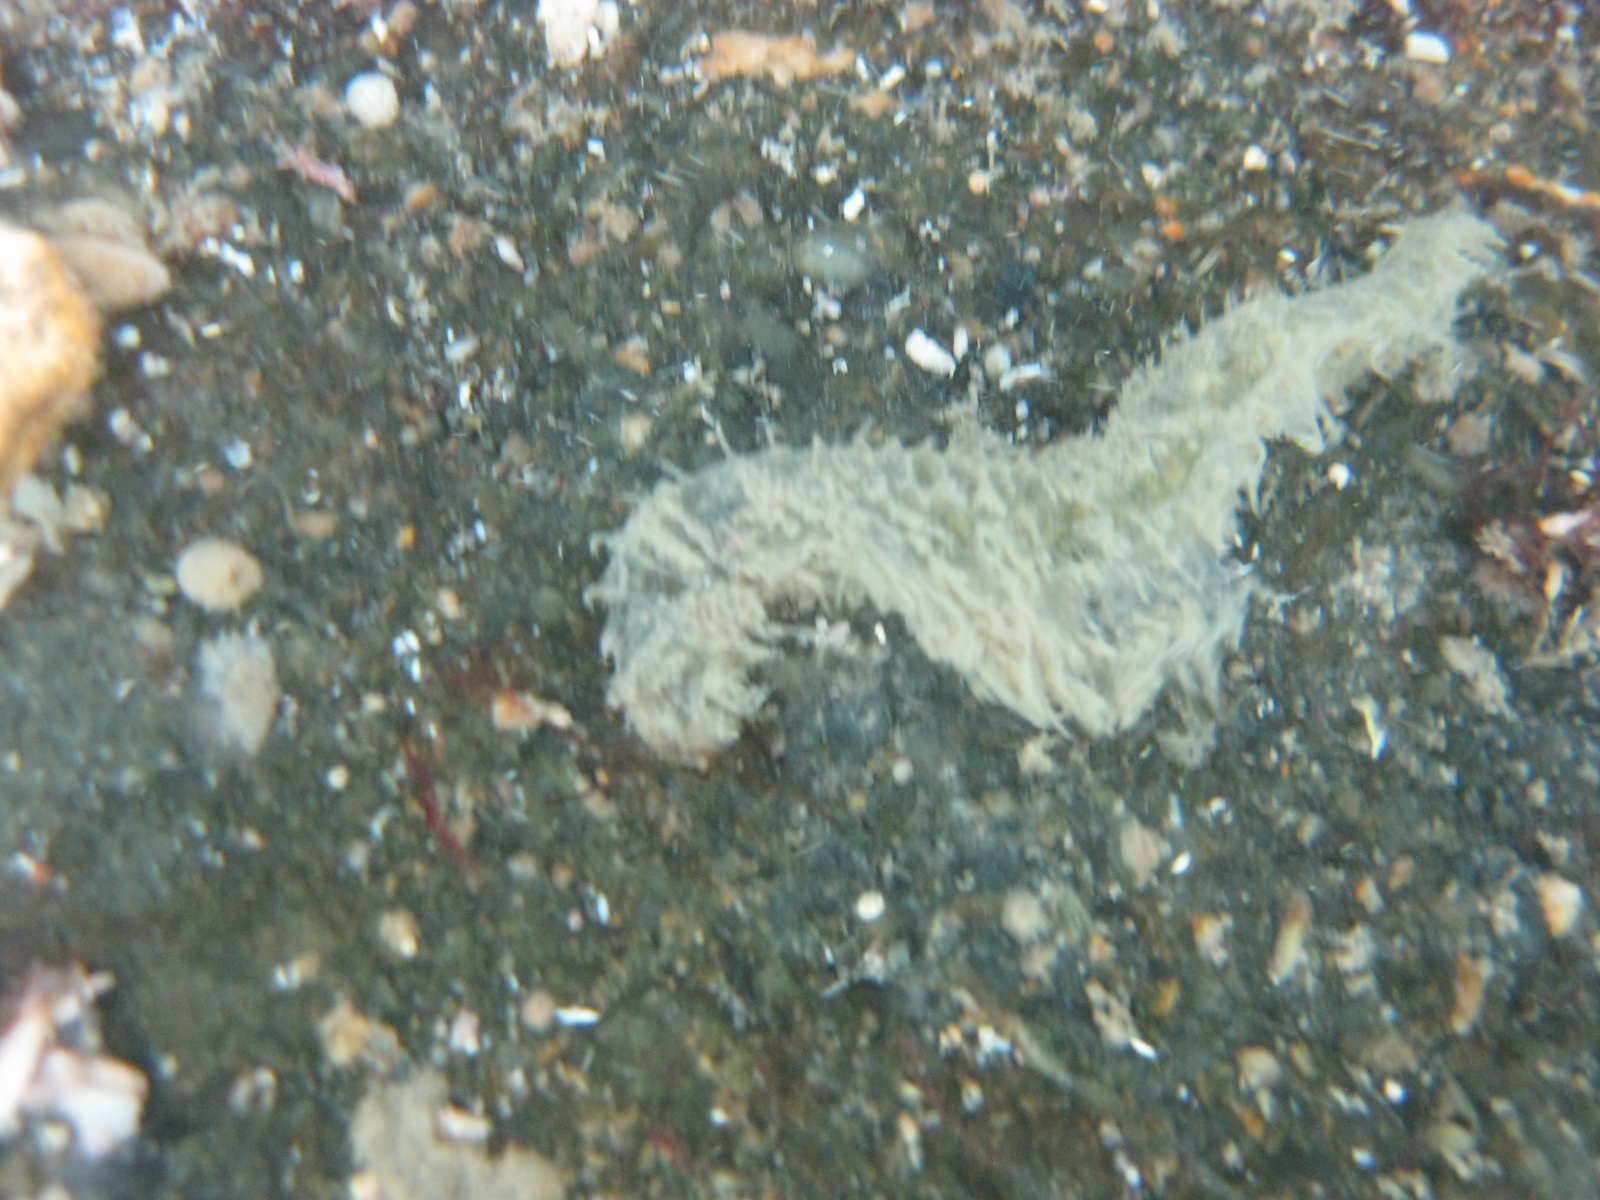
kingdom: Animalia
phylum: Annelida
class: Polychaeta
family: Flabelligeridae
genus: Flabelligera
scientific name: Flabelligera bicolor
